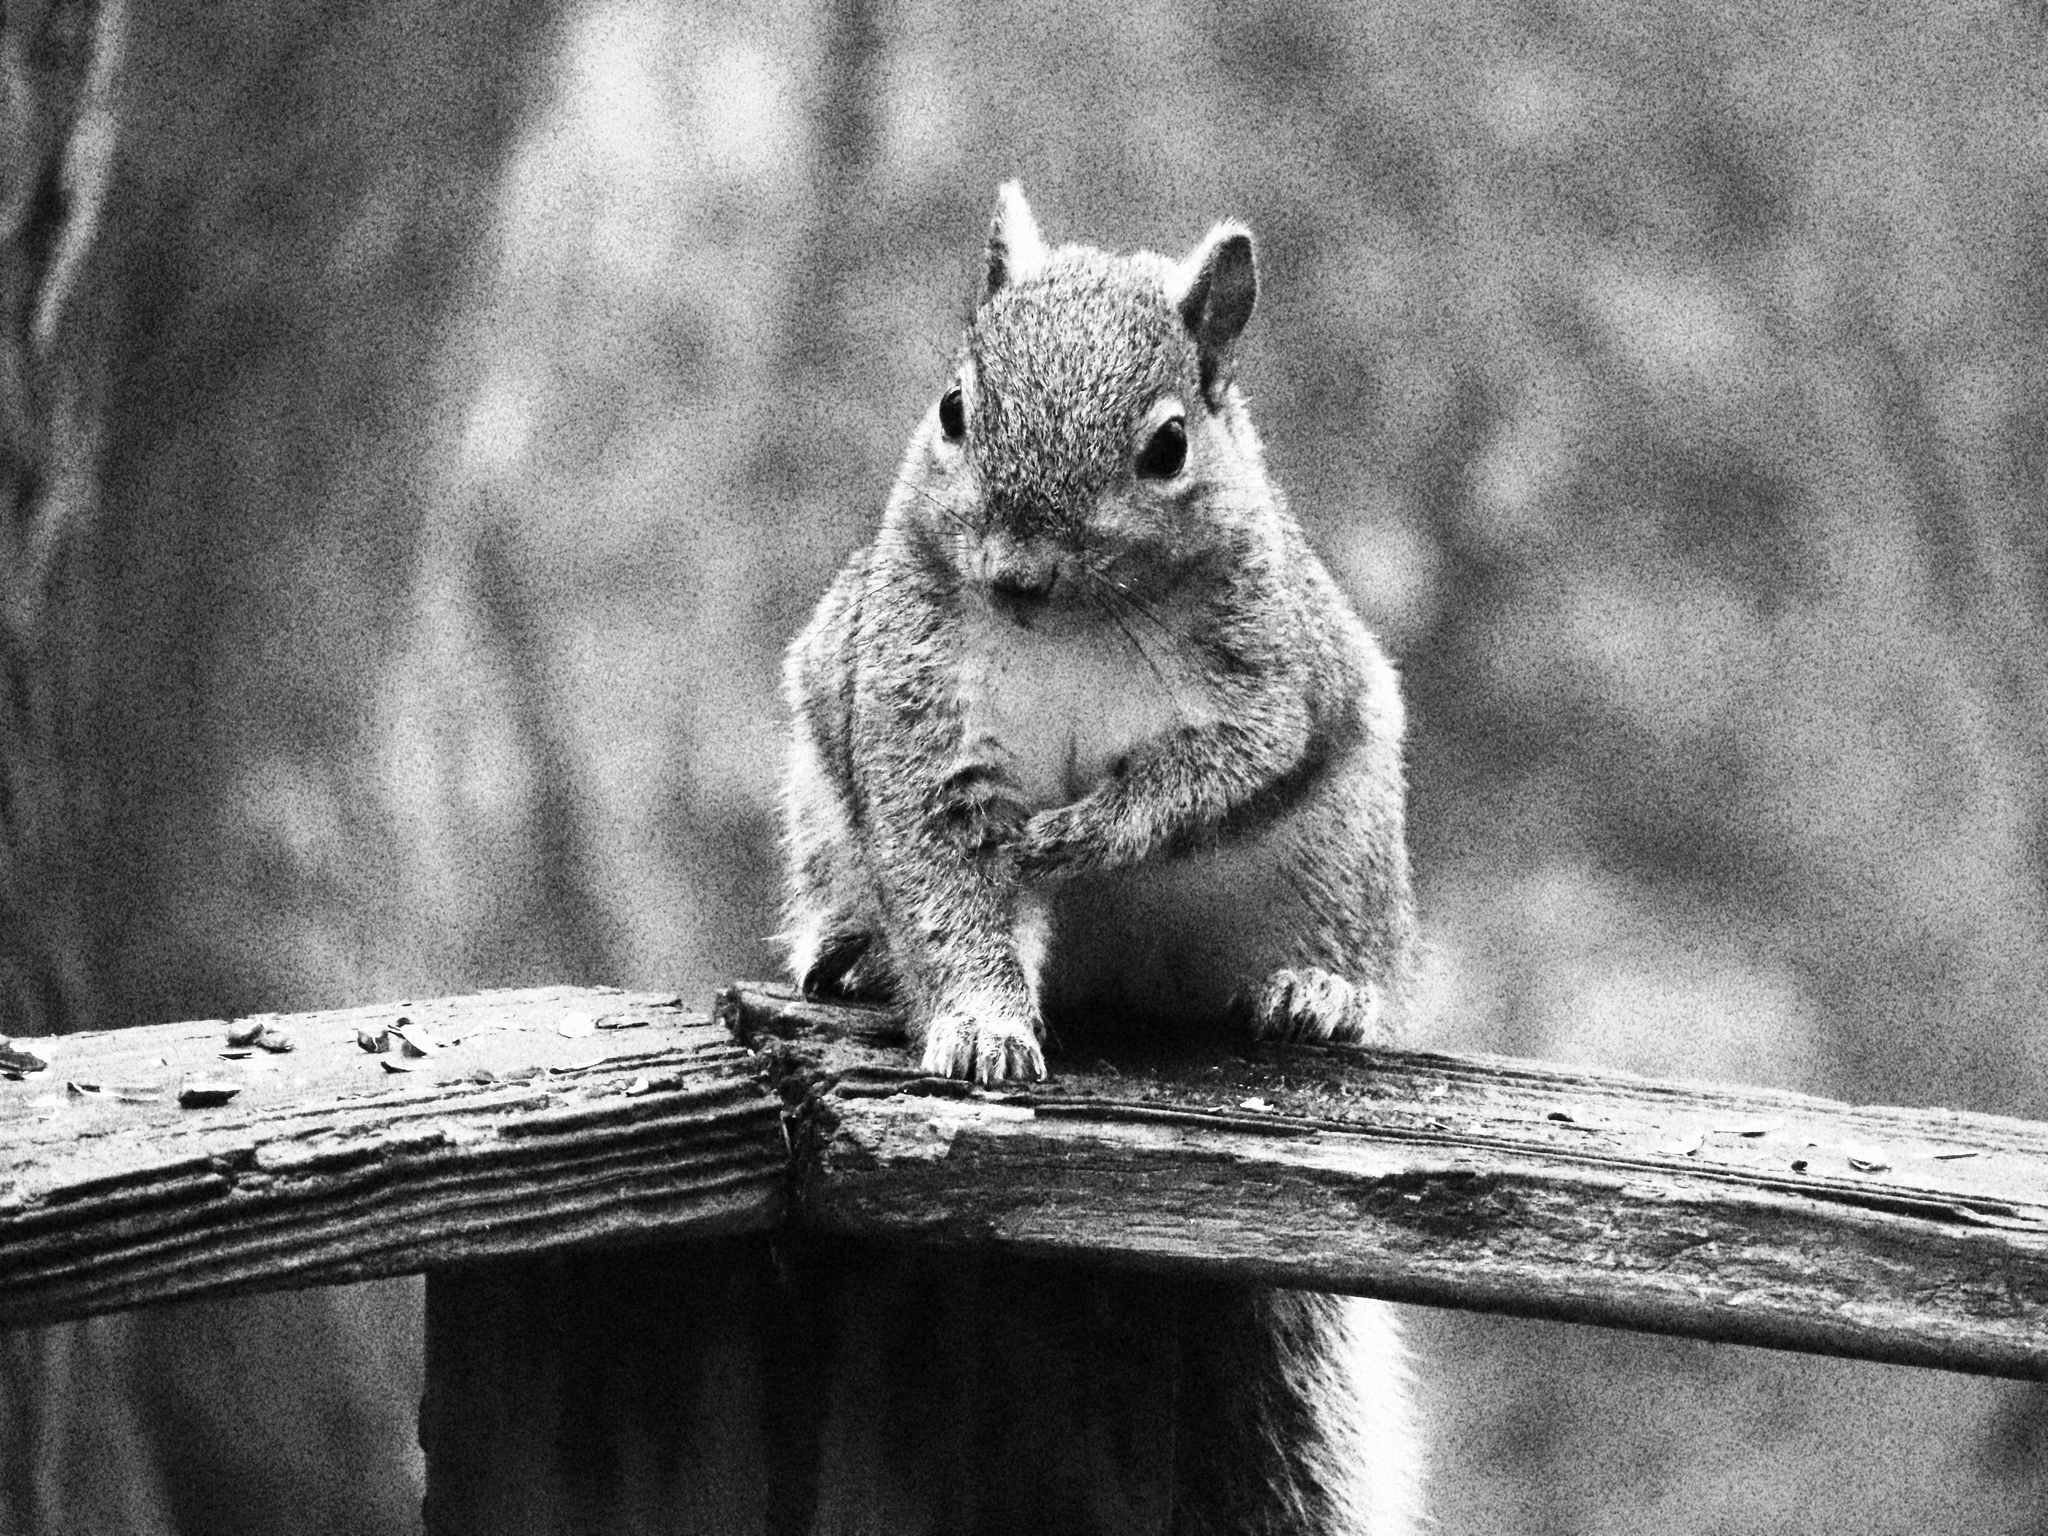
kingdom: Animalia
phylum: Chordata
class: Mammalia
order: Rodentia
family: Sciuridae
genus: Sciurus
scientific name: Sciurus carolinensis
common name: Eastern gray squirrel
